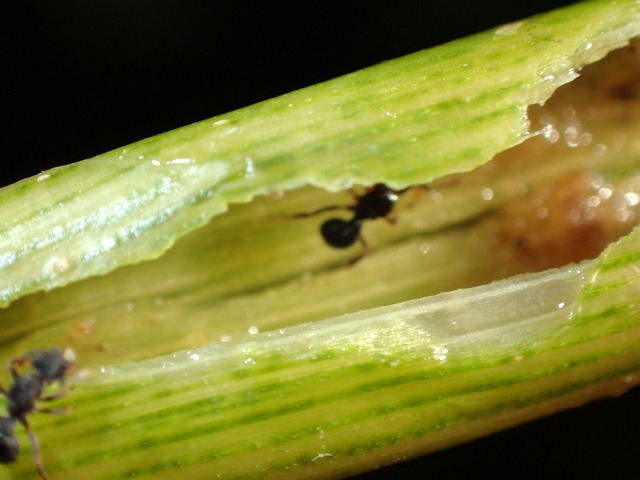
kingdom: Animalia
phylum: Arthropoda
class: Insecta
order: Hymenoptera
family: Formicidae
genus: Cyphomyrmex
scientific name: Cyphomyrmex rimosus
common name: Rimose fungus ant
